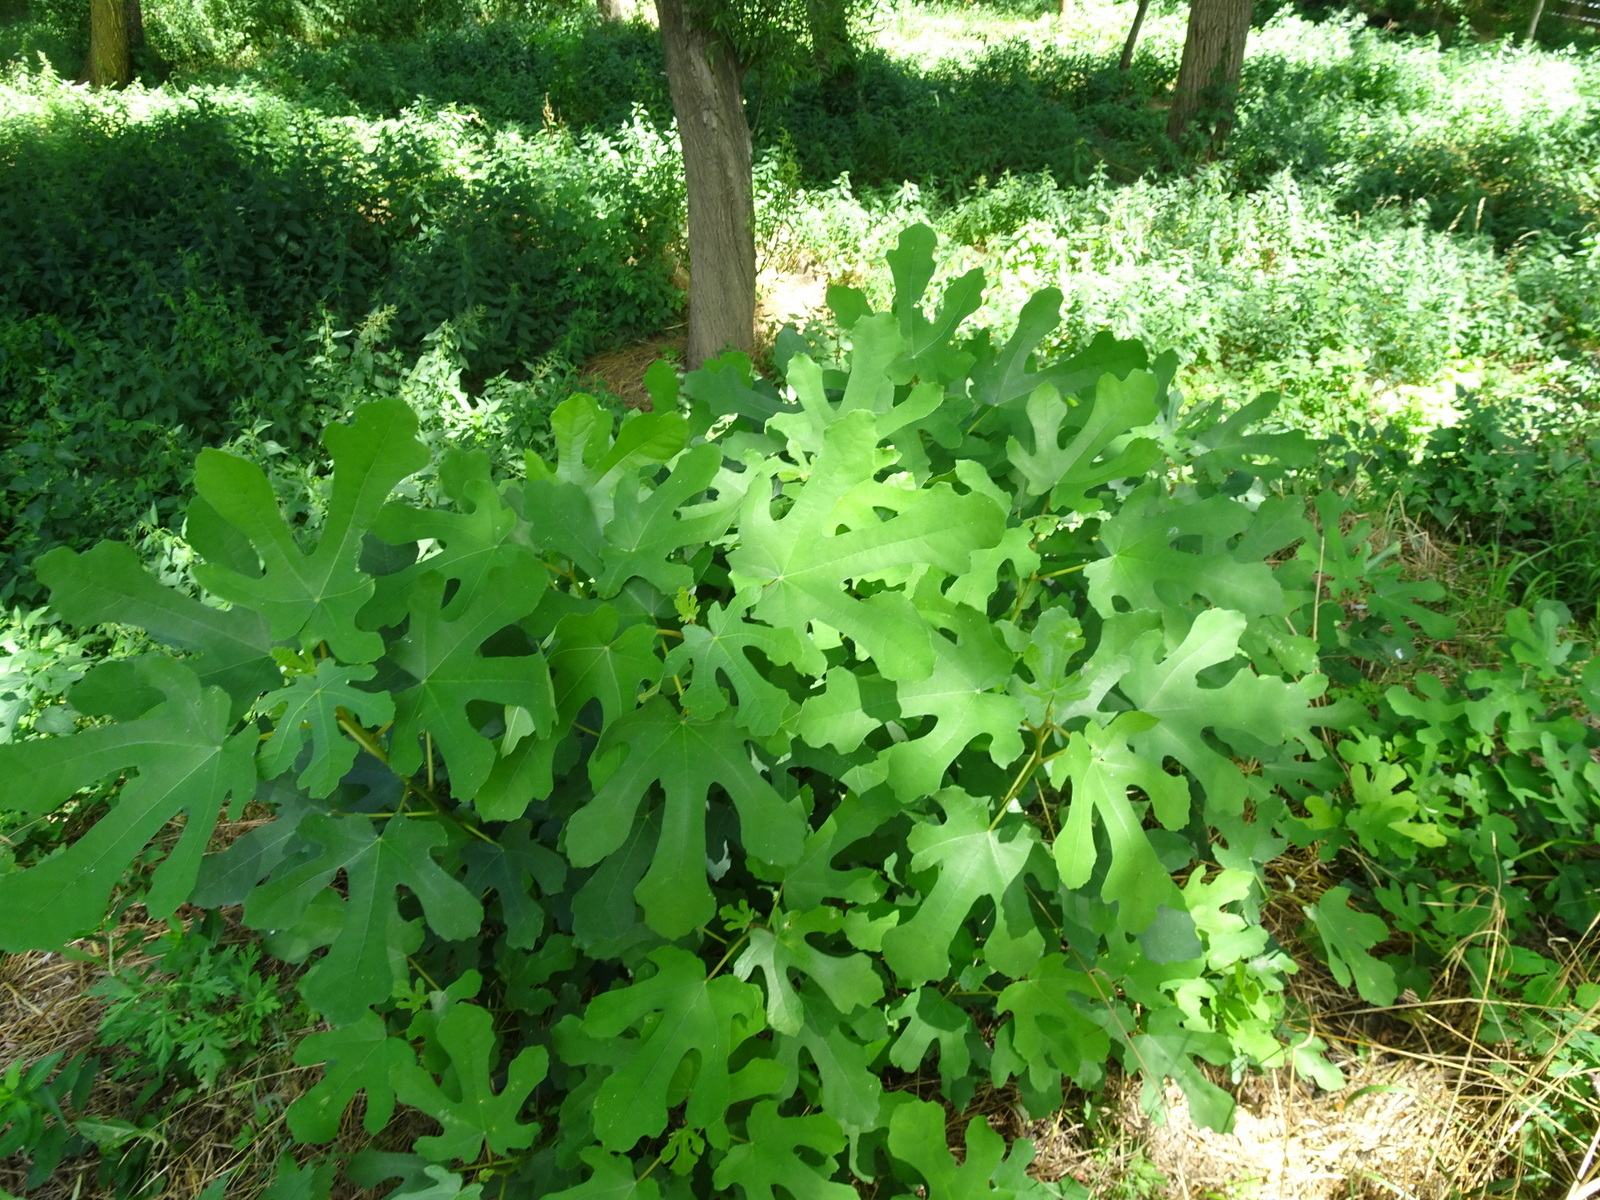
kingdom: Plantae
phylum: Tracheophyta
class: Magnoliopsida
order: Rosales
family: Moraceae
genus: Ficus
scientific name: Ficus carica
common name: Fig
